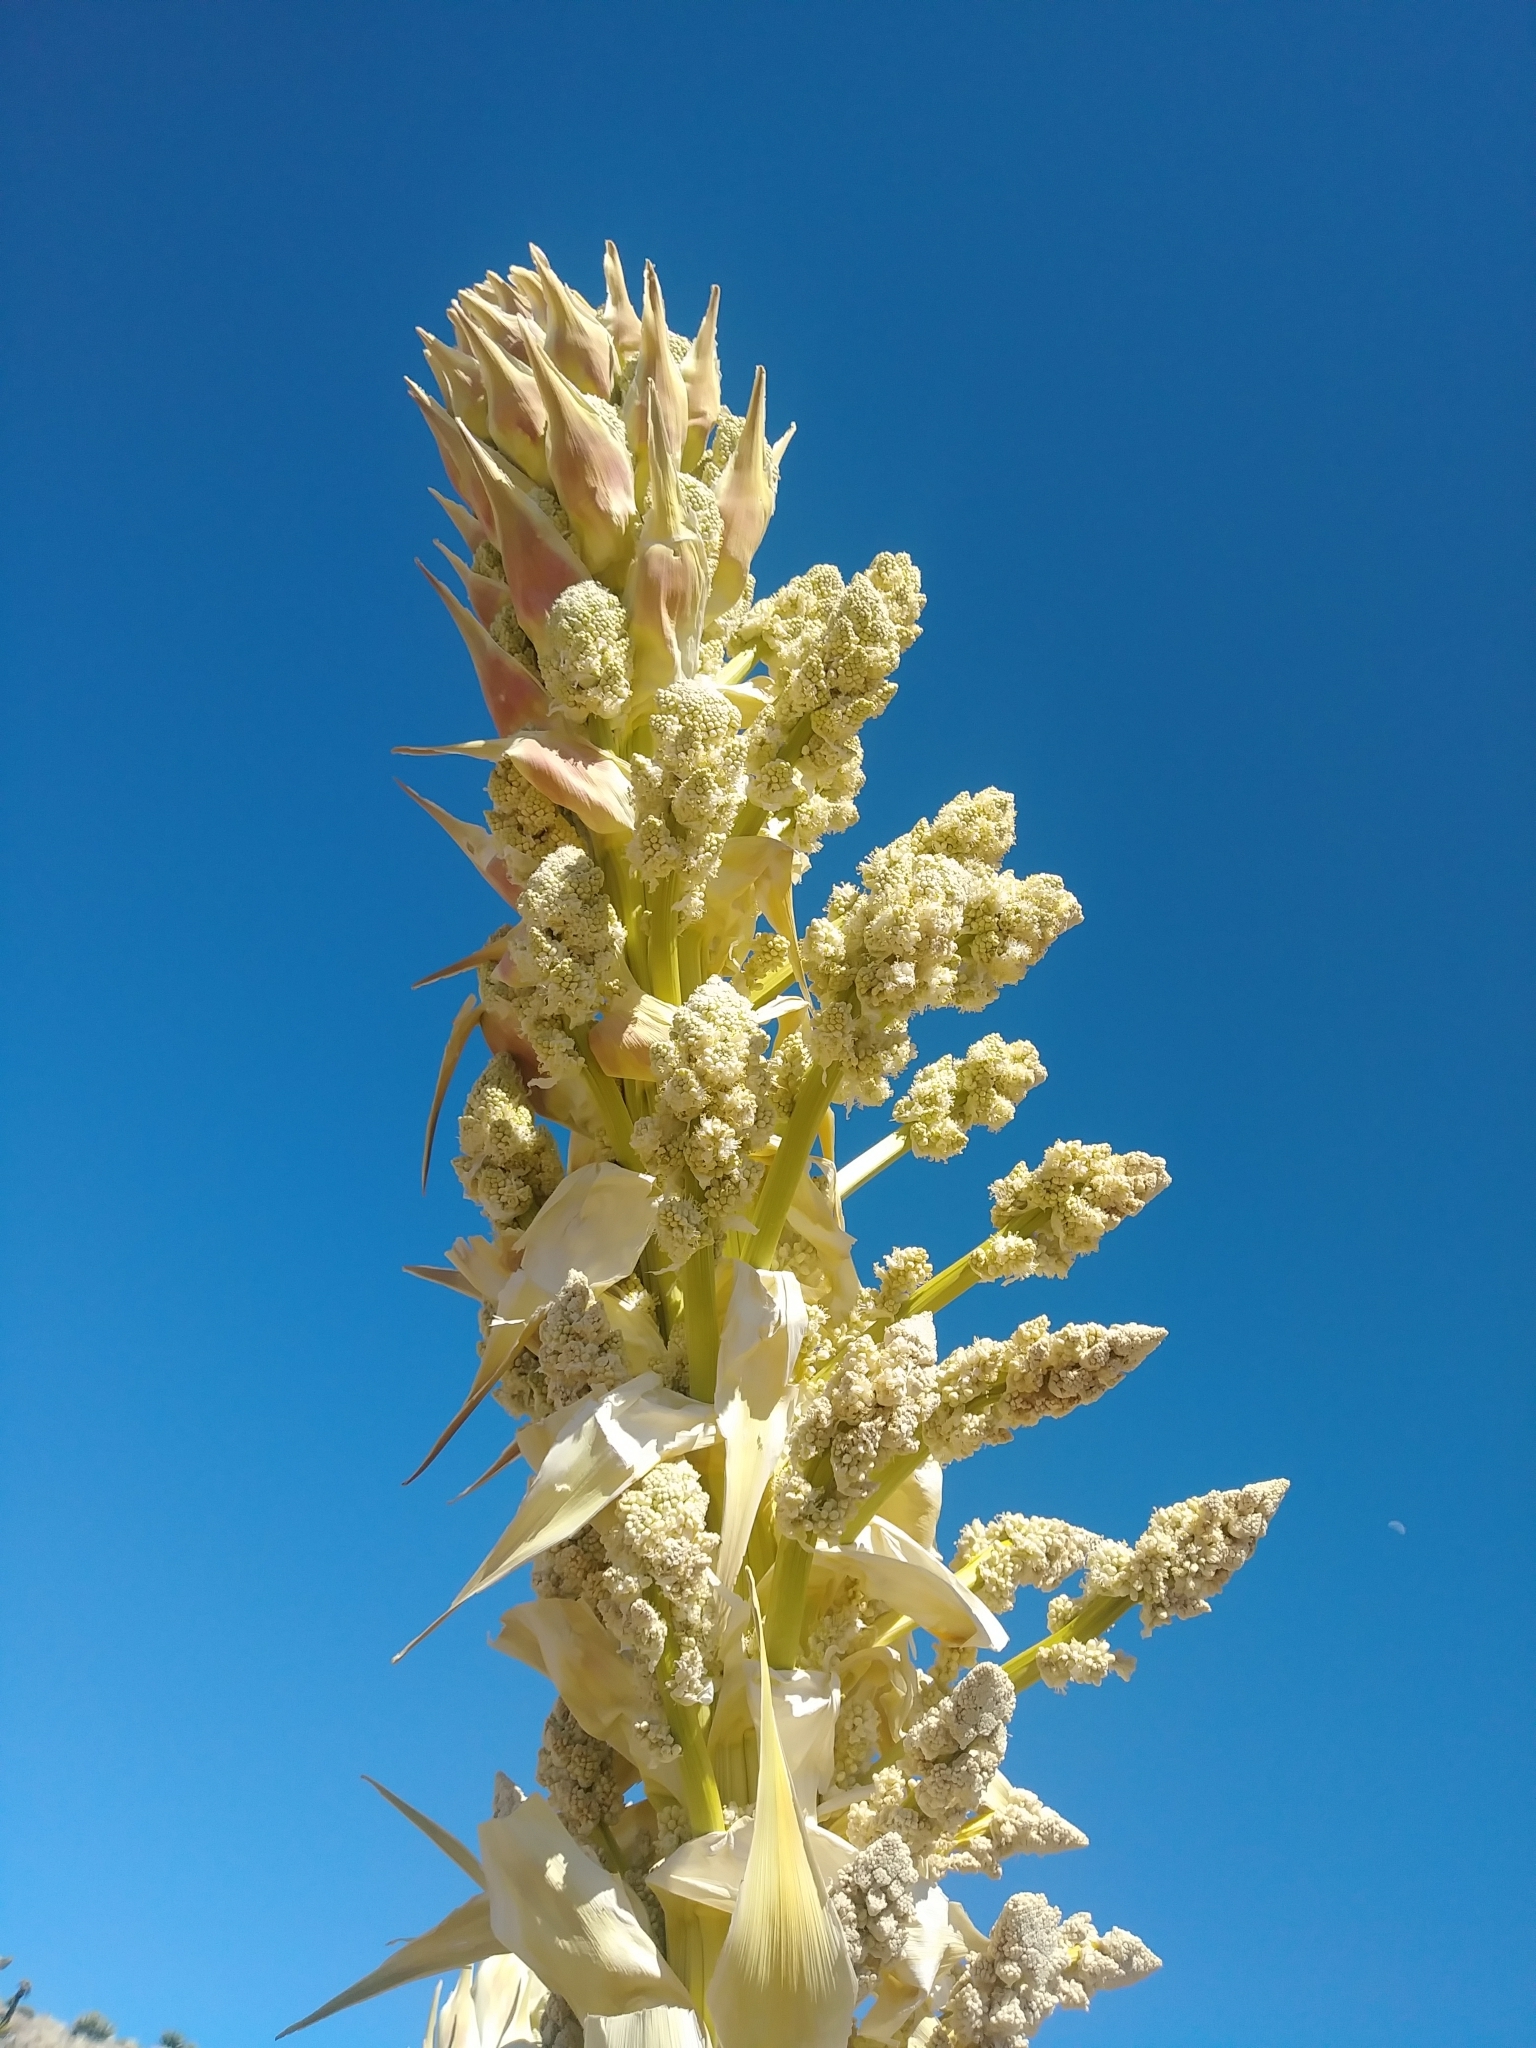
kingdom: Plantae
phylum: Tracheophyta
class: Liliopsida
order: Asparagales
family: Asparagaceae
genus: Nolina
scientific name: Nolina parryi
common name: Parry nolina
